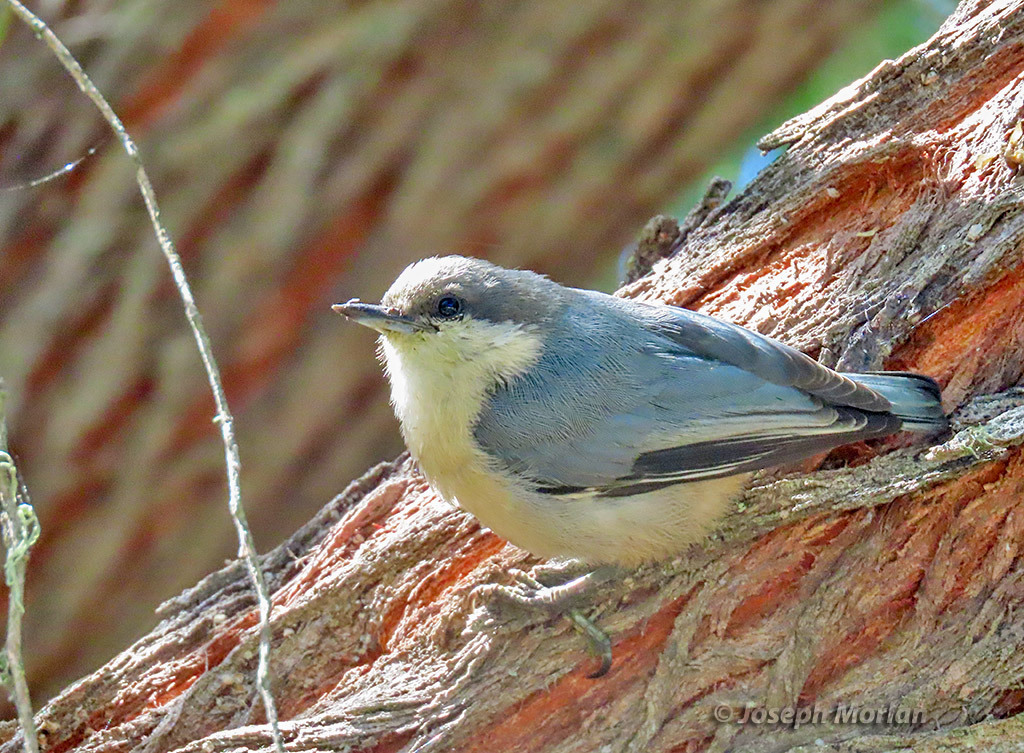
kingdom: Animalia
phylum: Chordata
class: Aves
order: Passeriformes
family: Sittidae
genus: Sitta
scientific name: Sitta pygmaea
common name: Pygmy nuthatch
